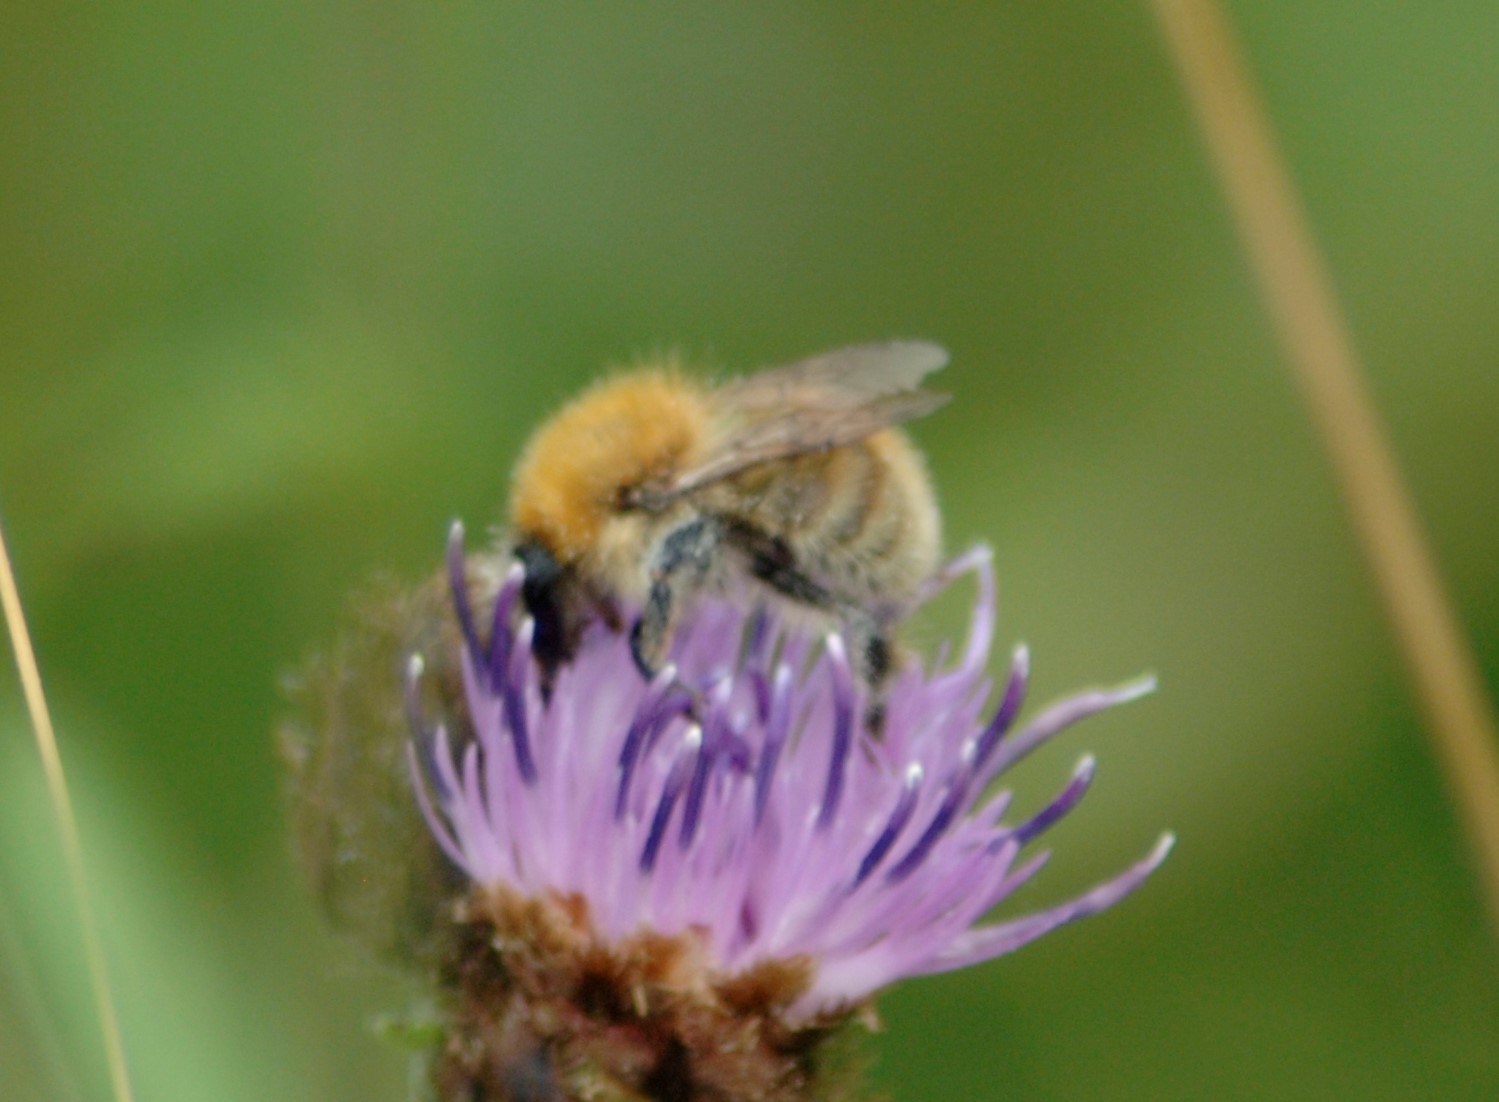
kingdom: Animalia
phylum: Arthropoda
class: Insecta
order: Hymenoptera
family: Apidae
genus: Bombus
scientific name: Bombus pascuorum
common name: Common carder bee
